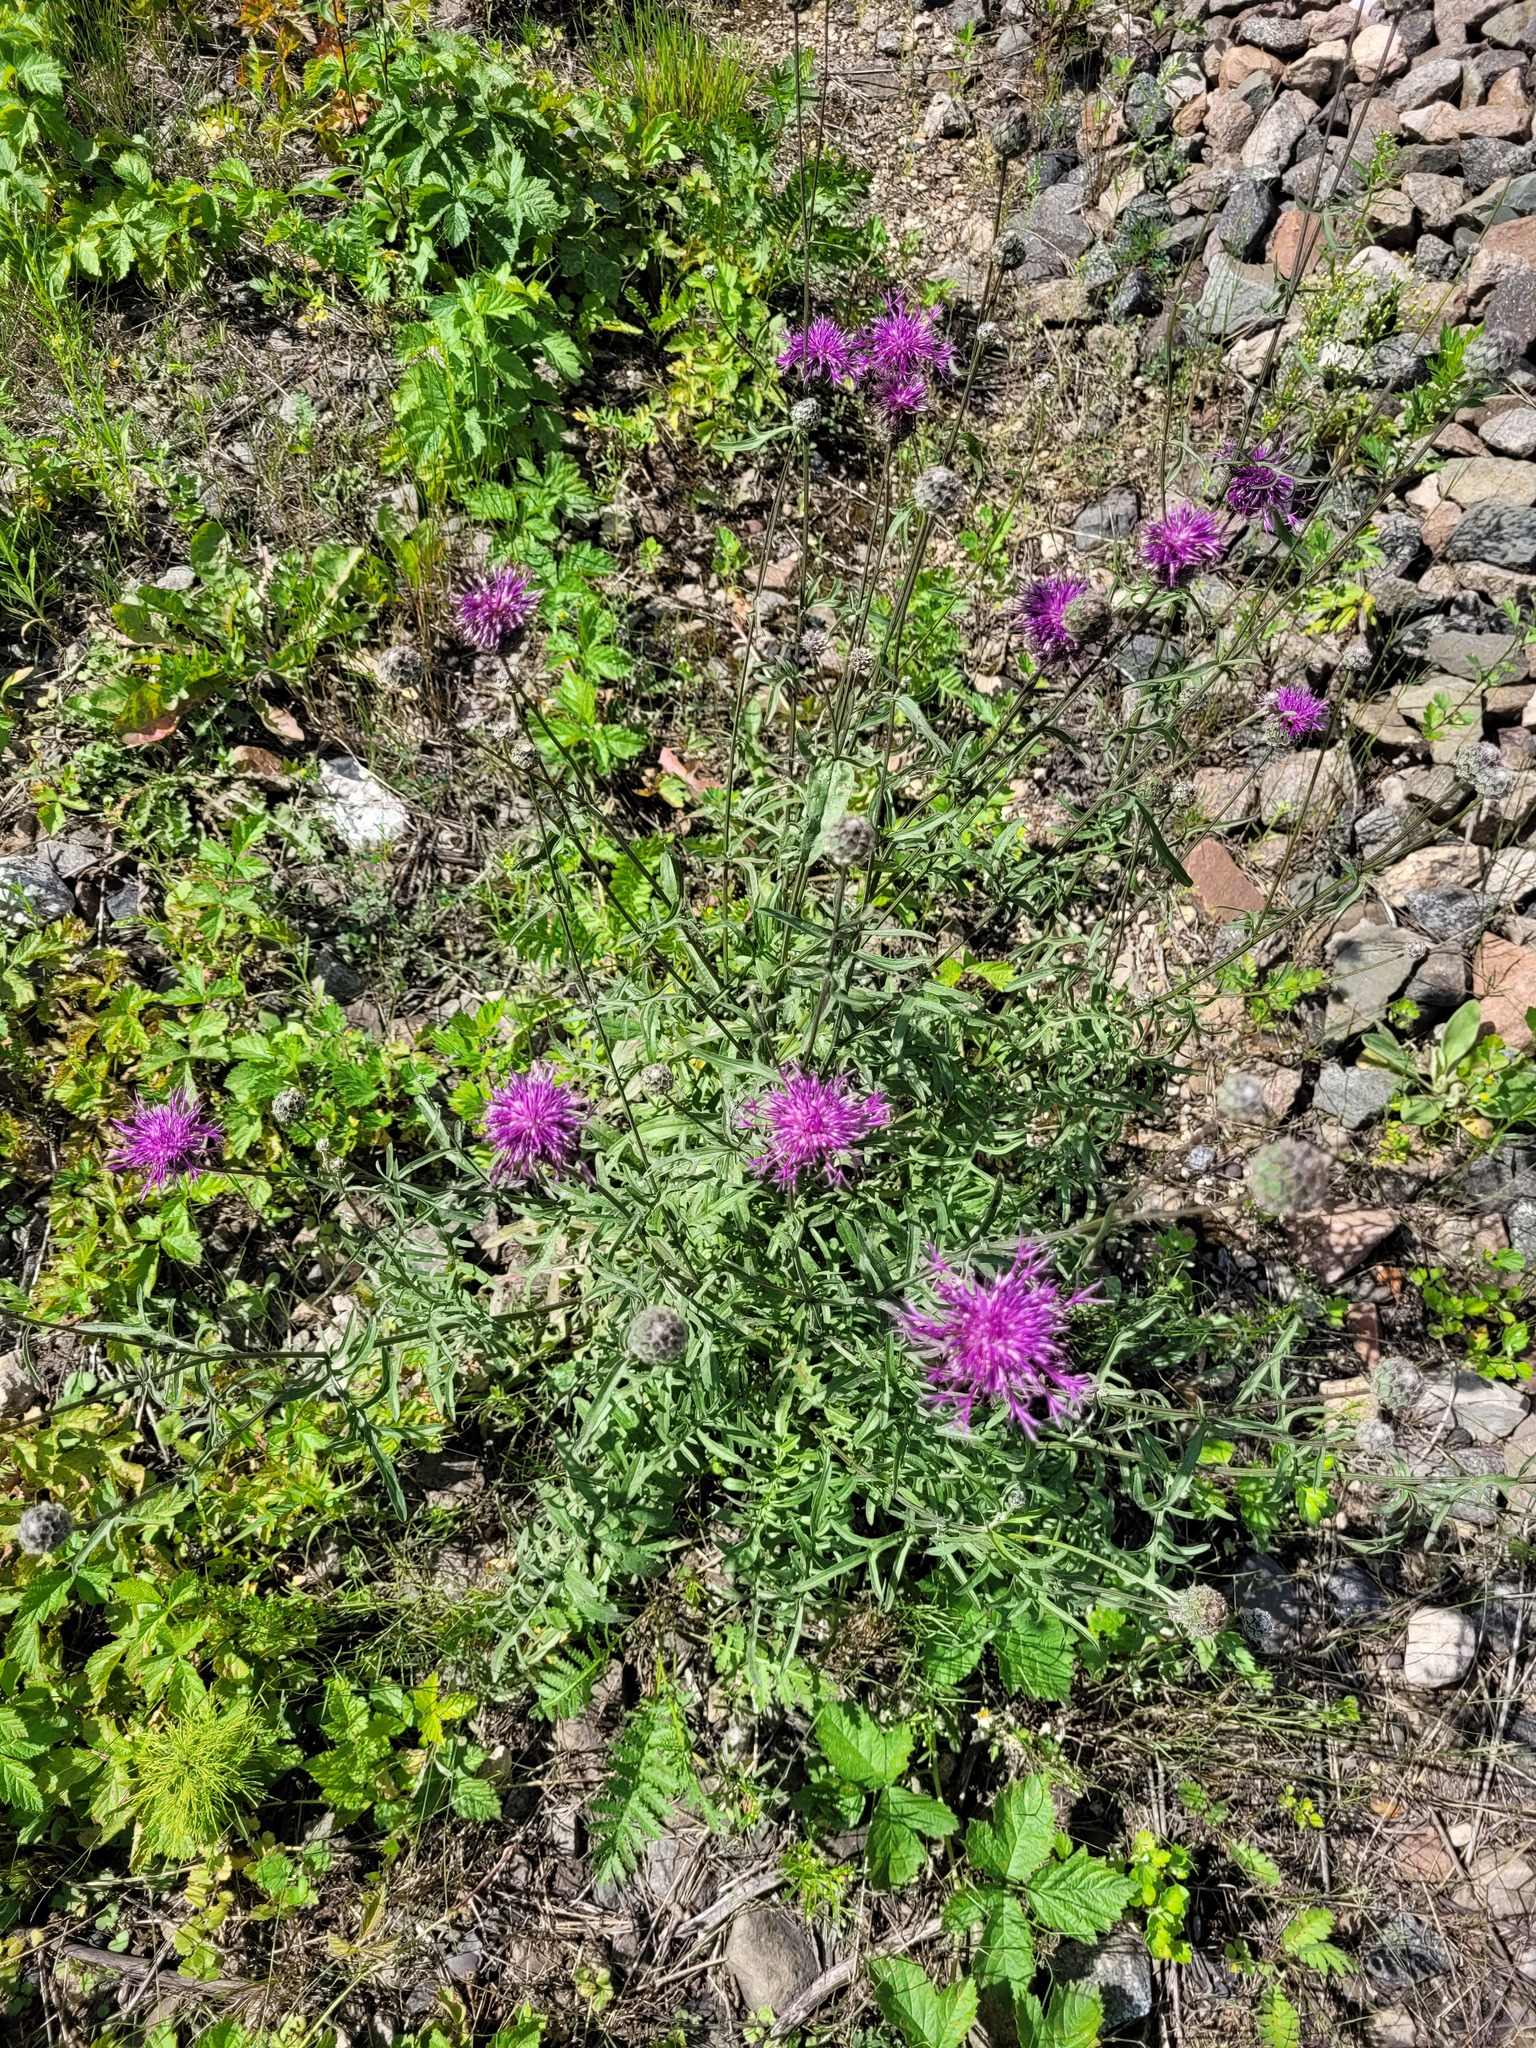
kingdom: Plantae
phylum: Tracheophyta
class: Magnoliopsida
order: Asterales
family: Asteraceae
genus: Centaurea
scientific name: Centaurea scabiosa
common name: Greater knapweed
